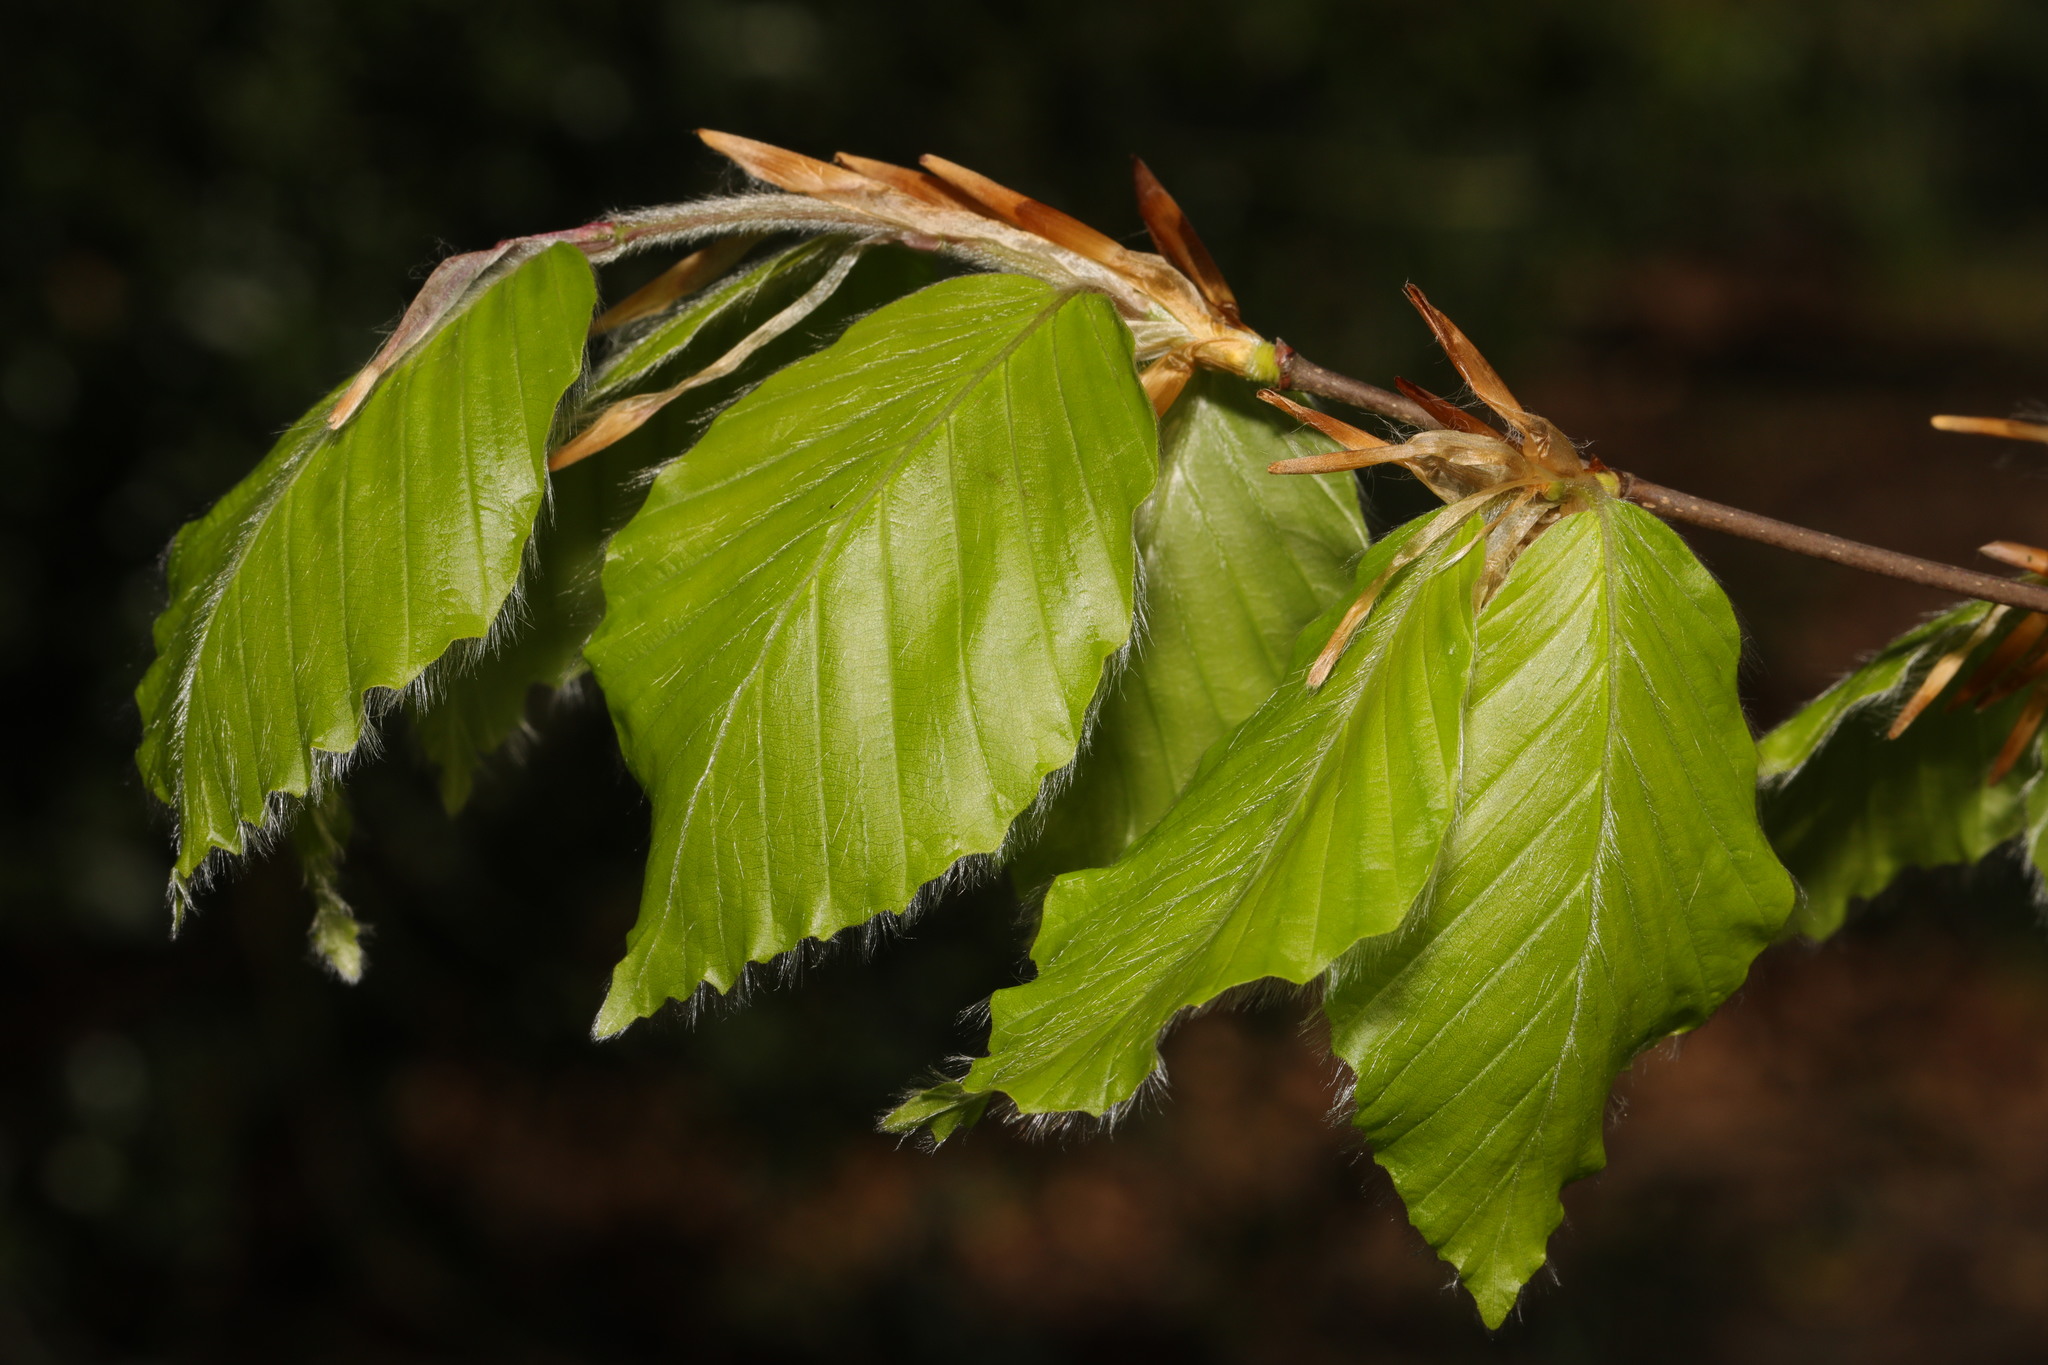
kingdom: Plantae
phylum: Tracheophyta
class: Magnoliopsida
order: Fagales
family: Fagaceae
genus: Fagus
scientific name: Fagus sylvatica
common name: Beech
